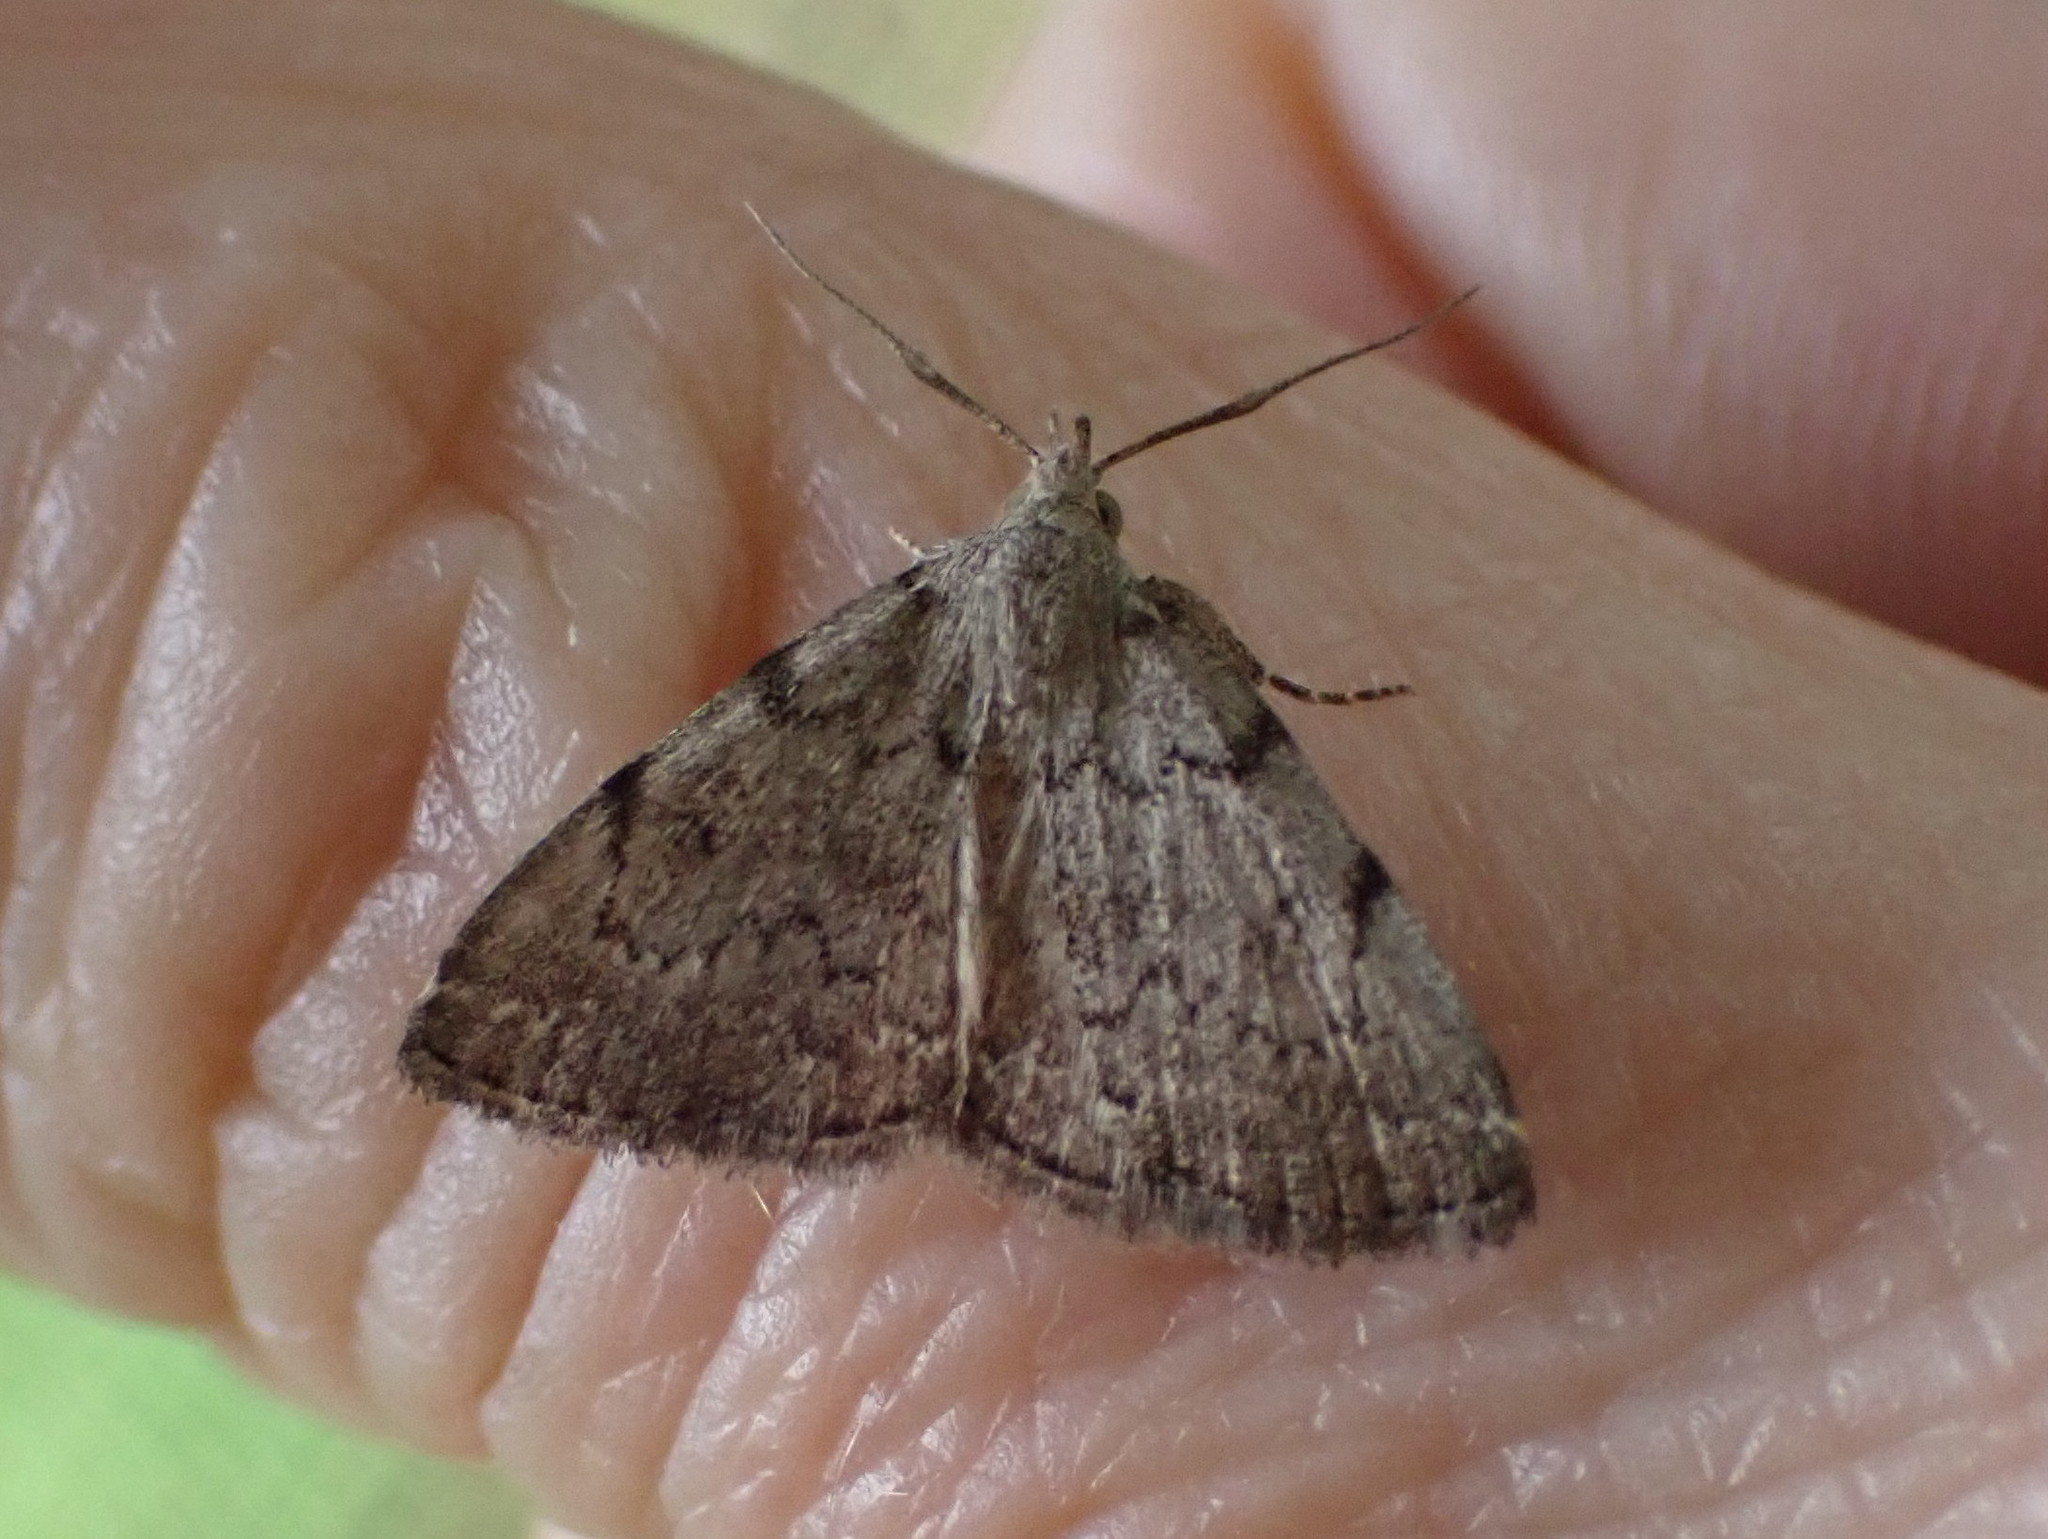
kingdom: Animalia
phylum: Arthropoda
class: Insecta
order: Lepidoptera
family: Erebidae
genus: Zanclognatha
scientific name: Zanclognatha theralis
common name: Flagged fan-foot
